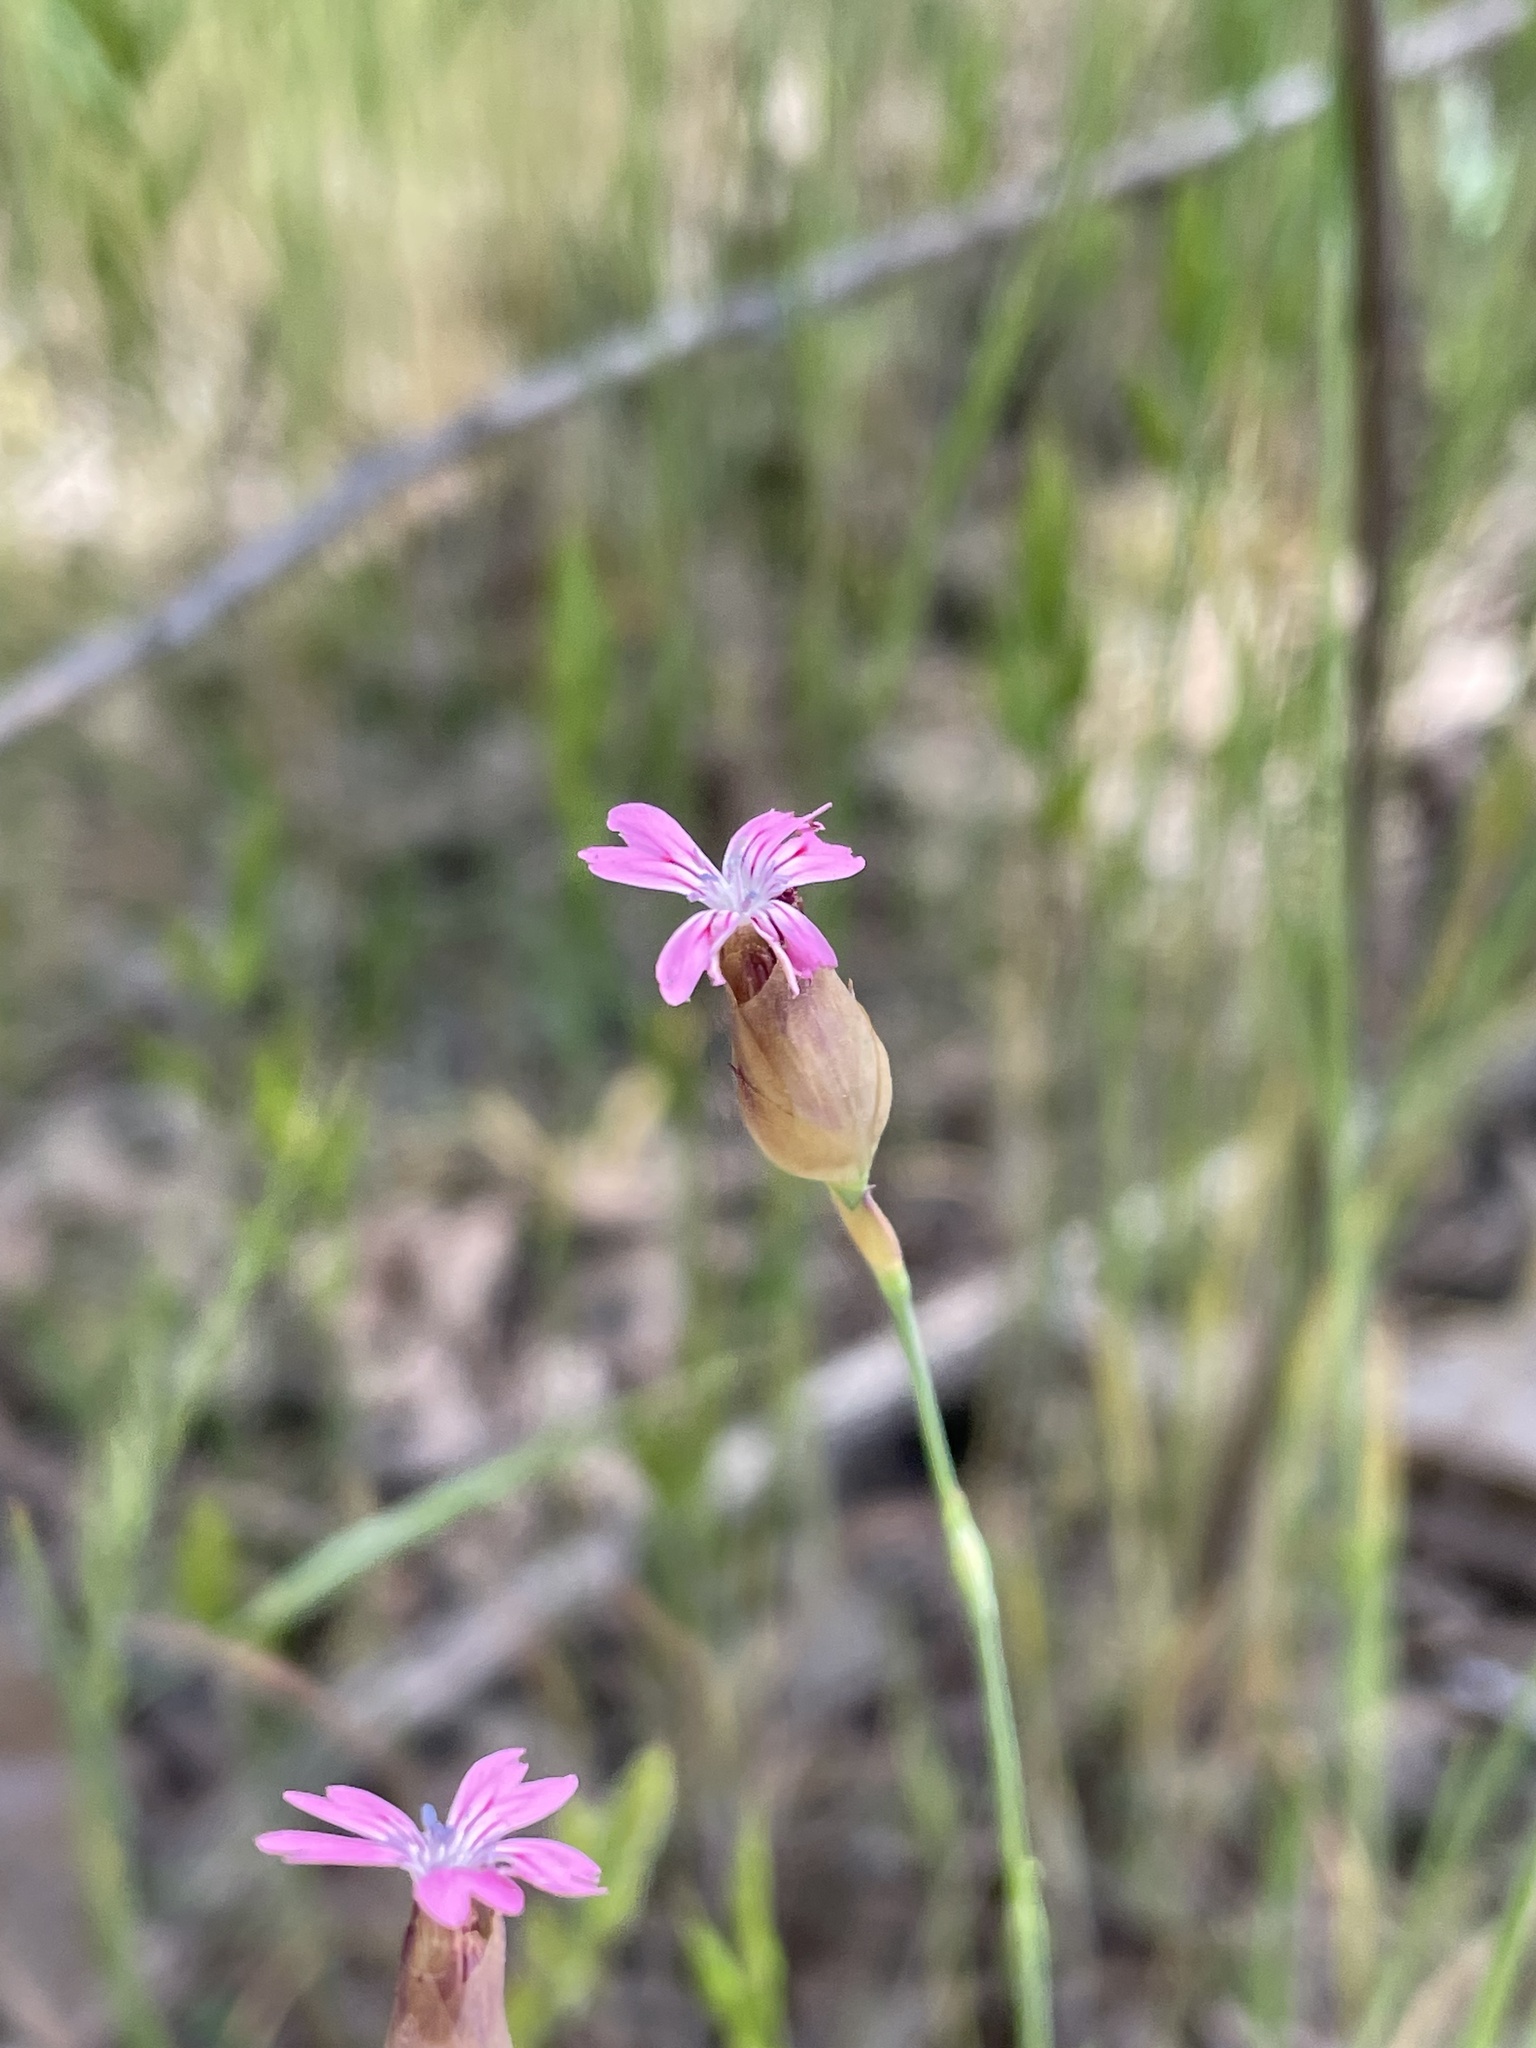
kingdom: Plantae
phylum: Tracheophyta
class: Magnoliopsida
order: Caryophyllales
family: Caryophyllaceae
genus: Petrorhagia
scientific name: Petrorhagia dubia
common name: Hairypink
